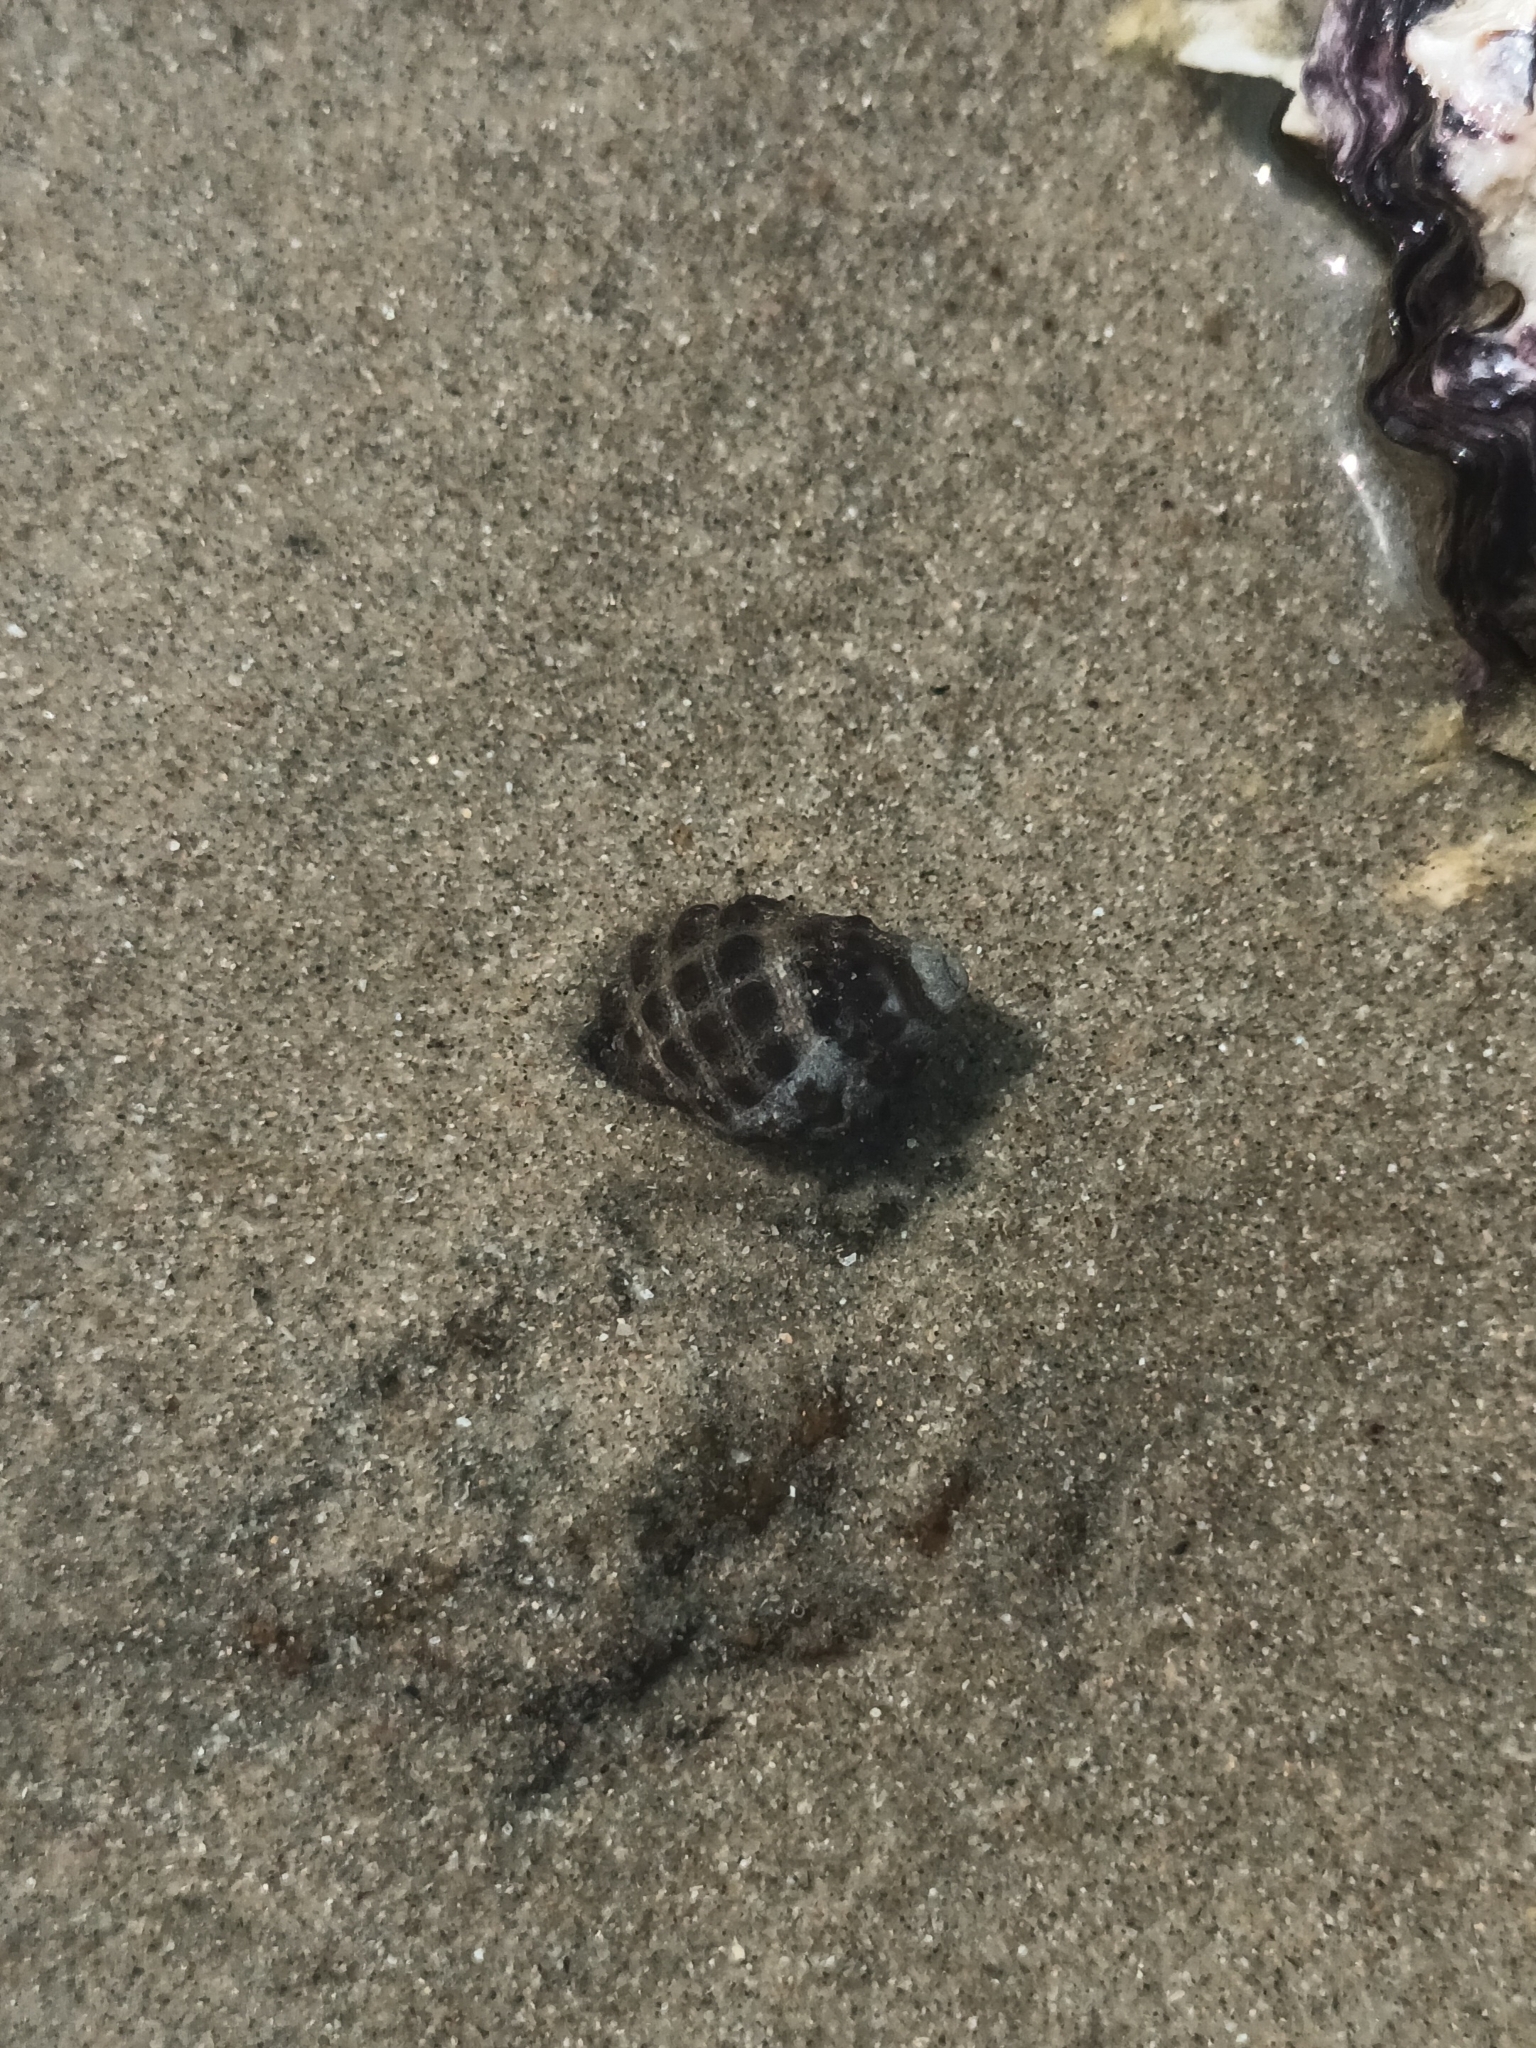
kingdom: Animalia
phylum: Mollusca
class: Gastropoda
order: Neogastropoda
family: Muricidae
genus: Tenguella
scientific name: Tenguella granulata
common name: Granular drupe
